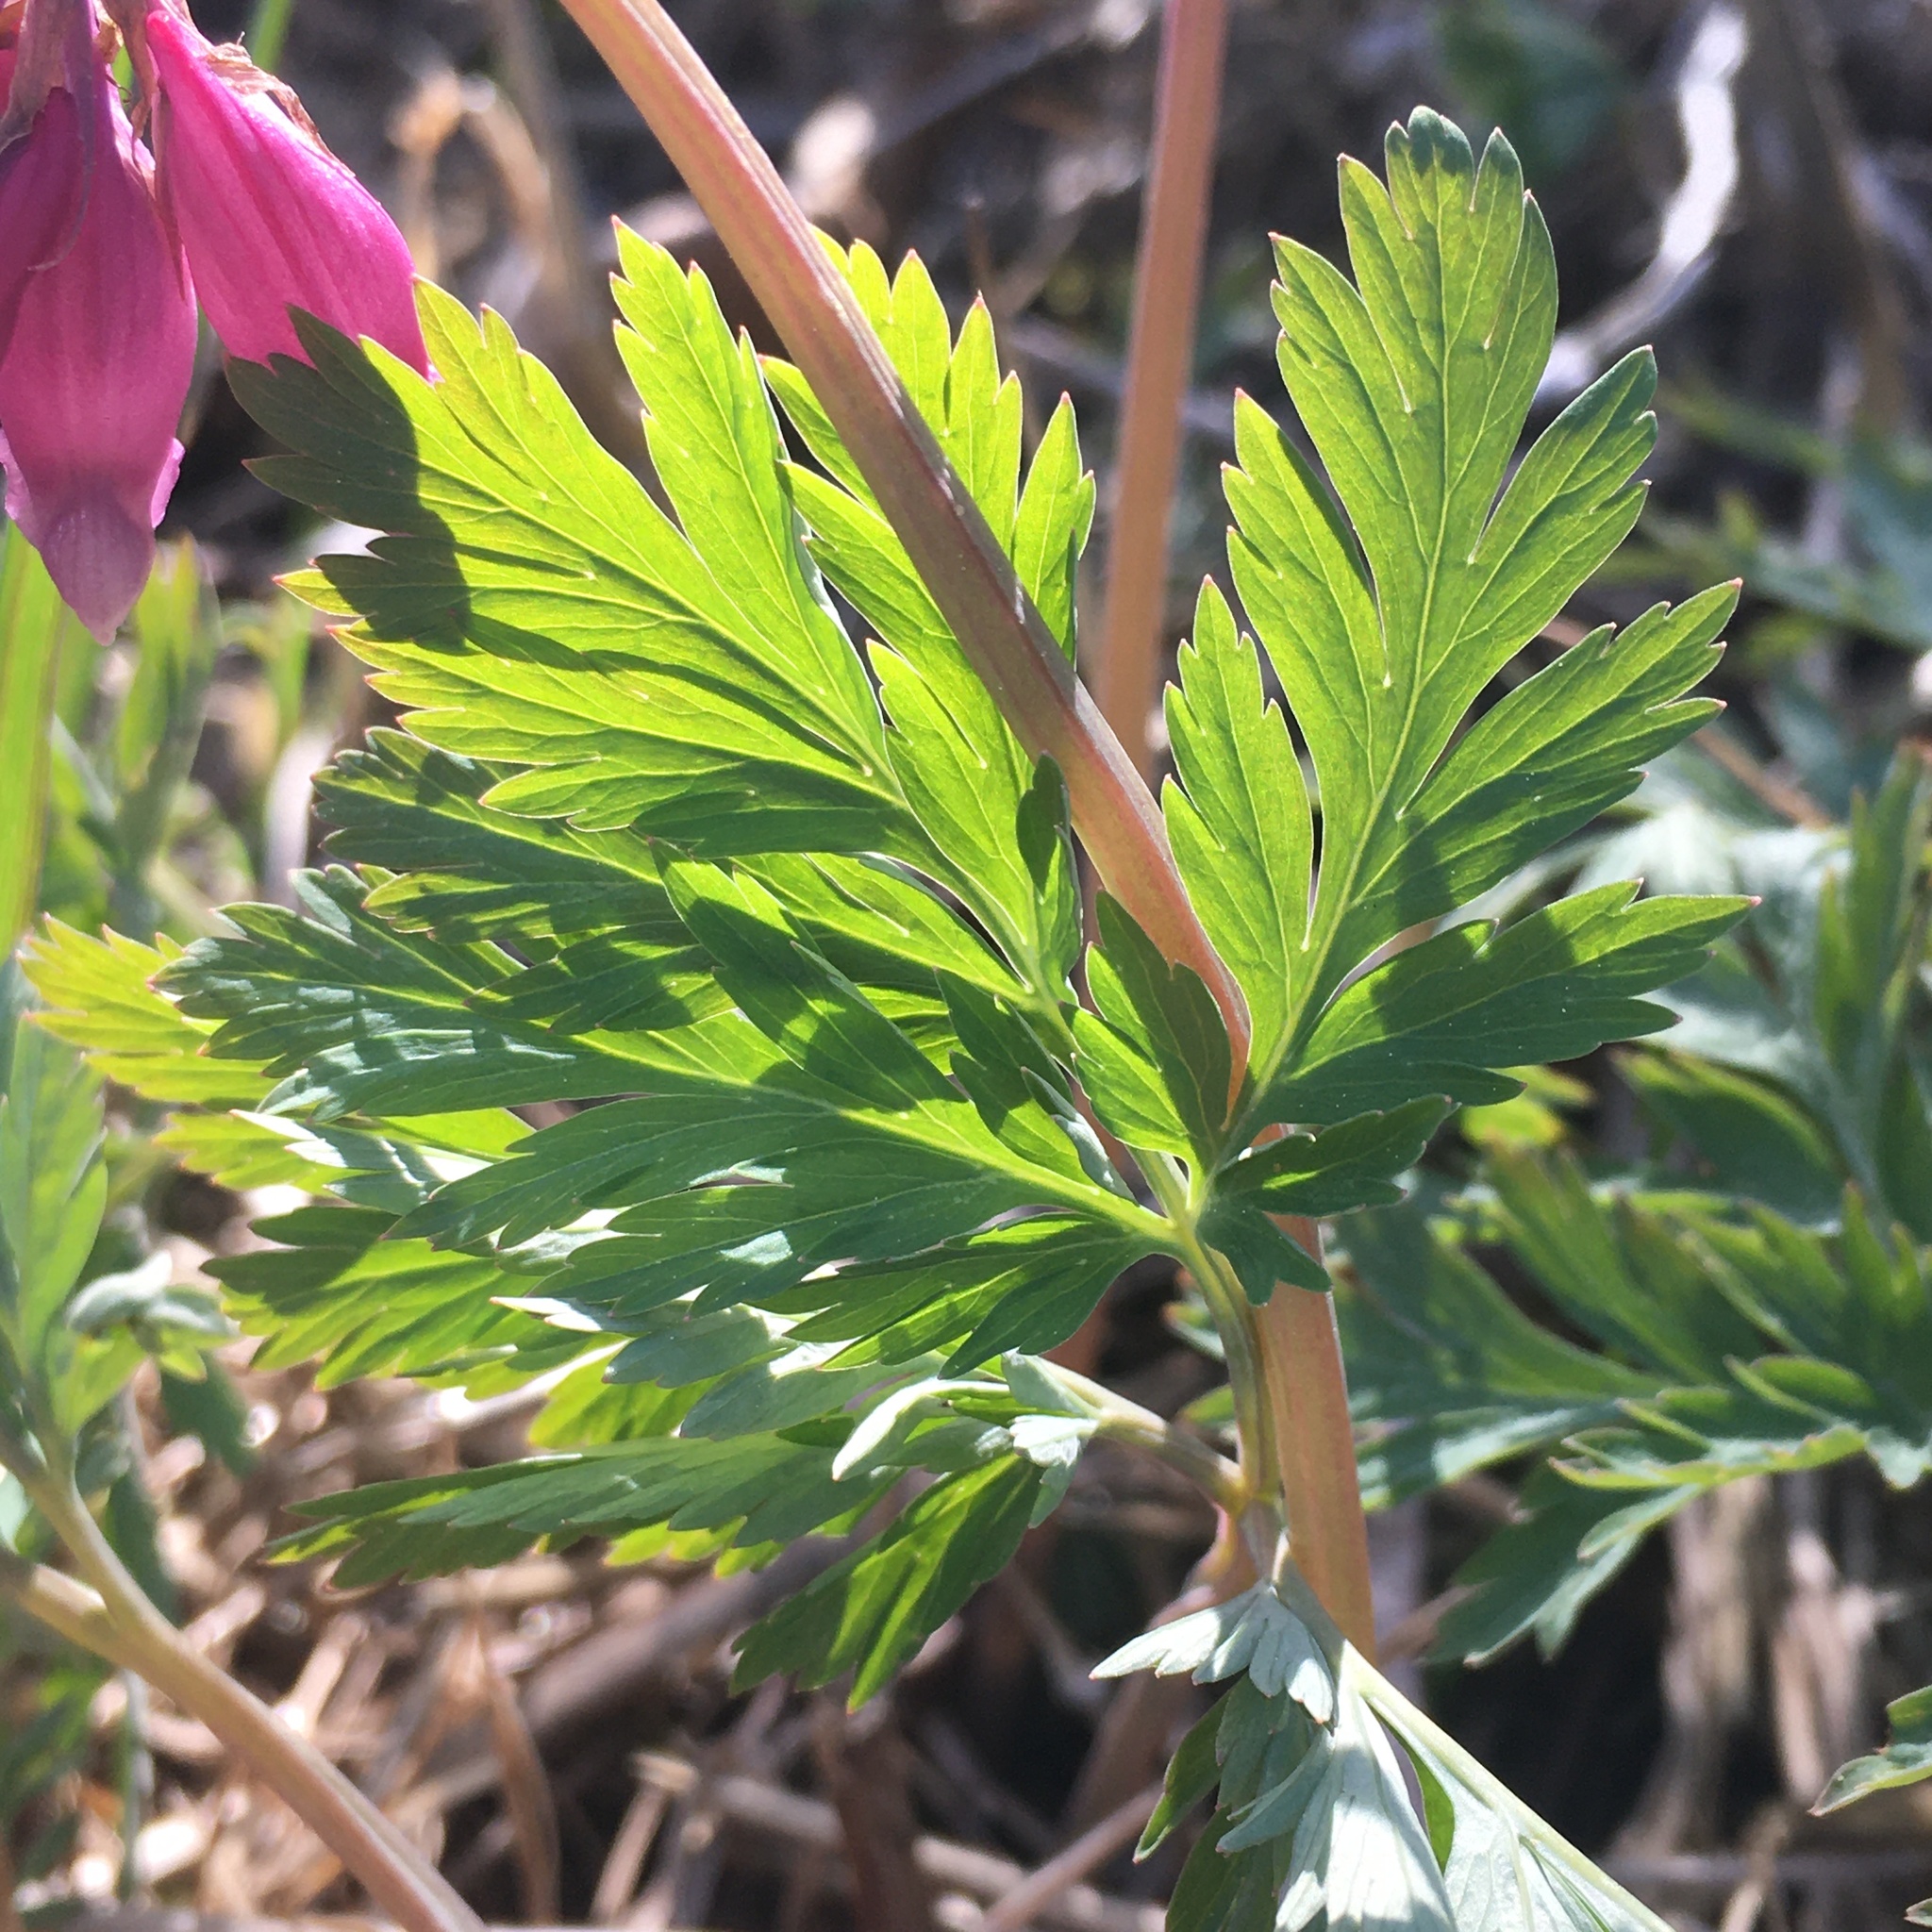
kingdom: Plantae
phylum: Tracheophyta
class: Magnoliopsida
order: Ranunculales
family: Papaveraceae
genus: Dicentra
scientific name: Dicentra formosa
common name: Bleeding-heart
